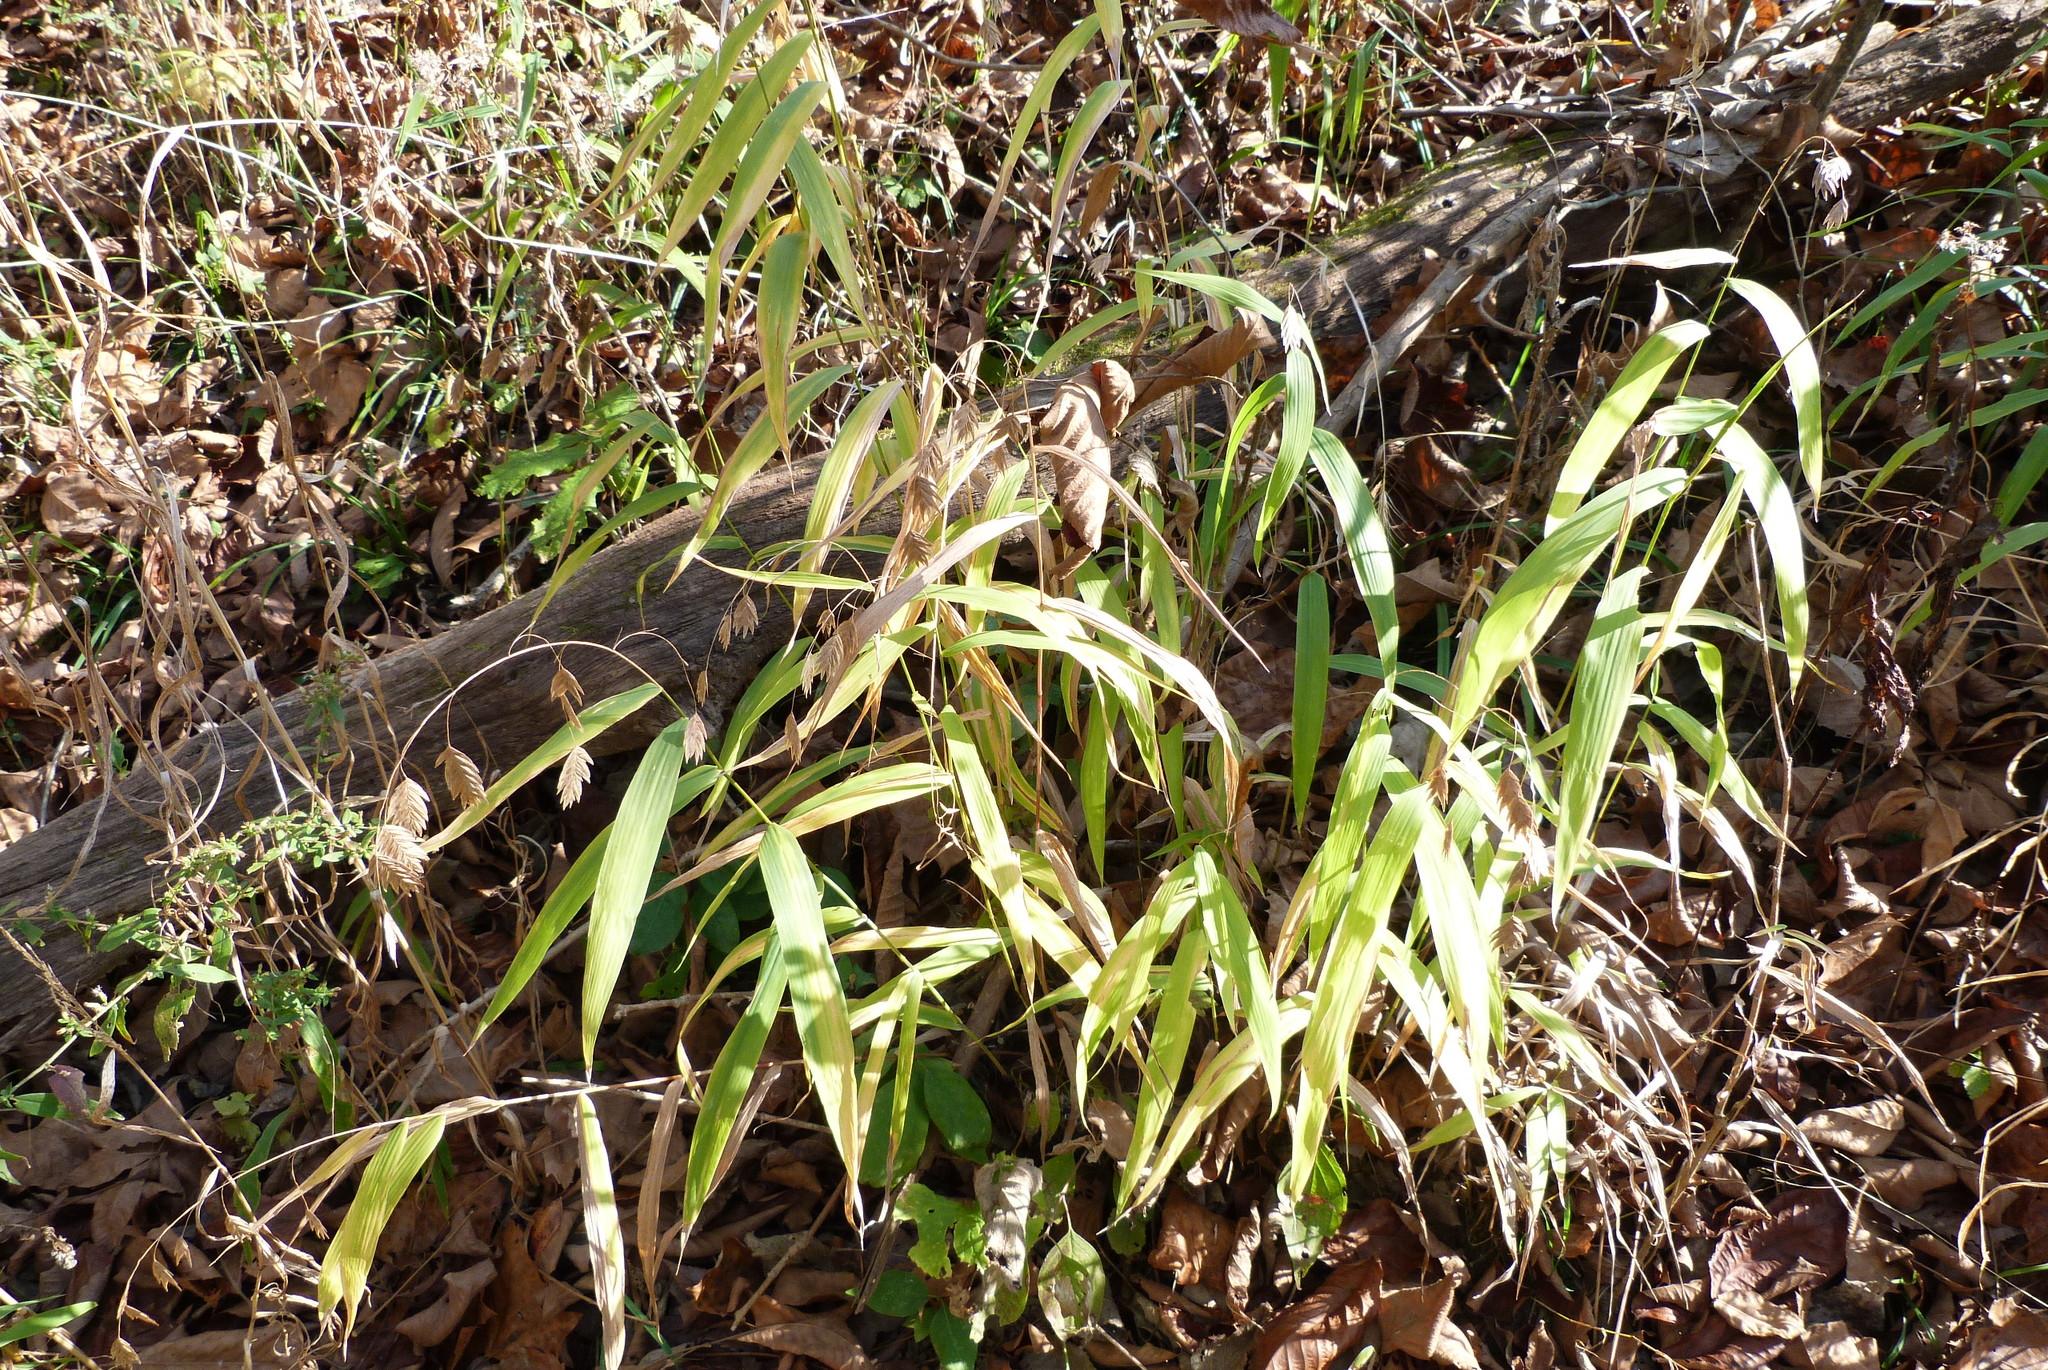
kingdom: Plantae
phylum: Tracheophyta
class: Liliopsida
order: Poales
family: Poaceae
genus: Chasmanthium
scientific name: Chasmanthium latifolium
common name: Broad-leaved chasmanthium
